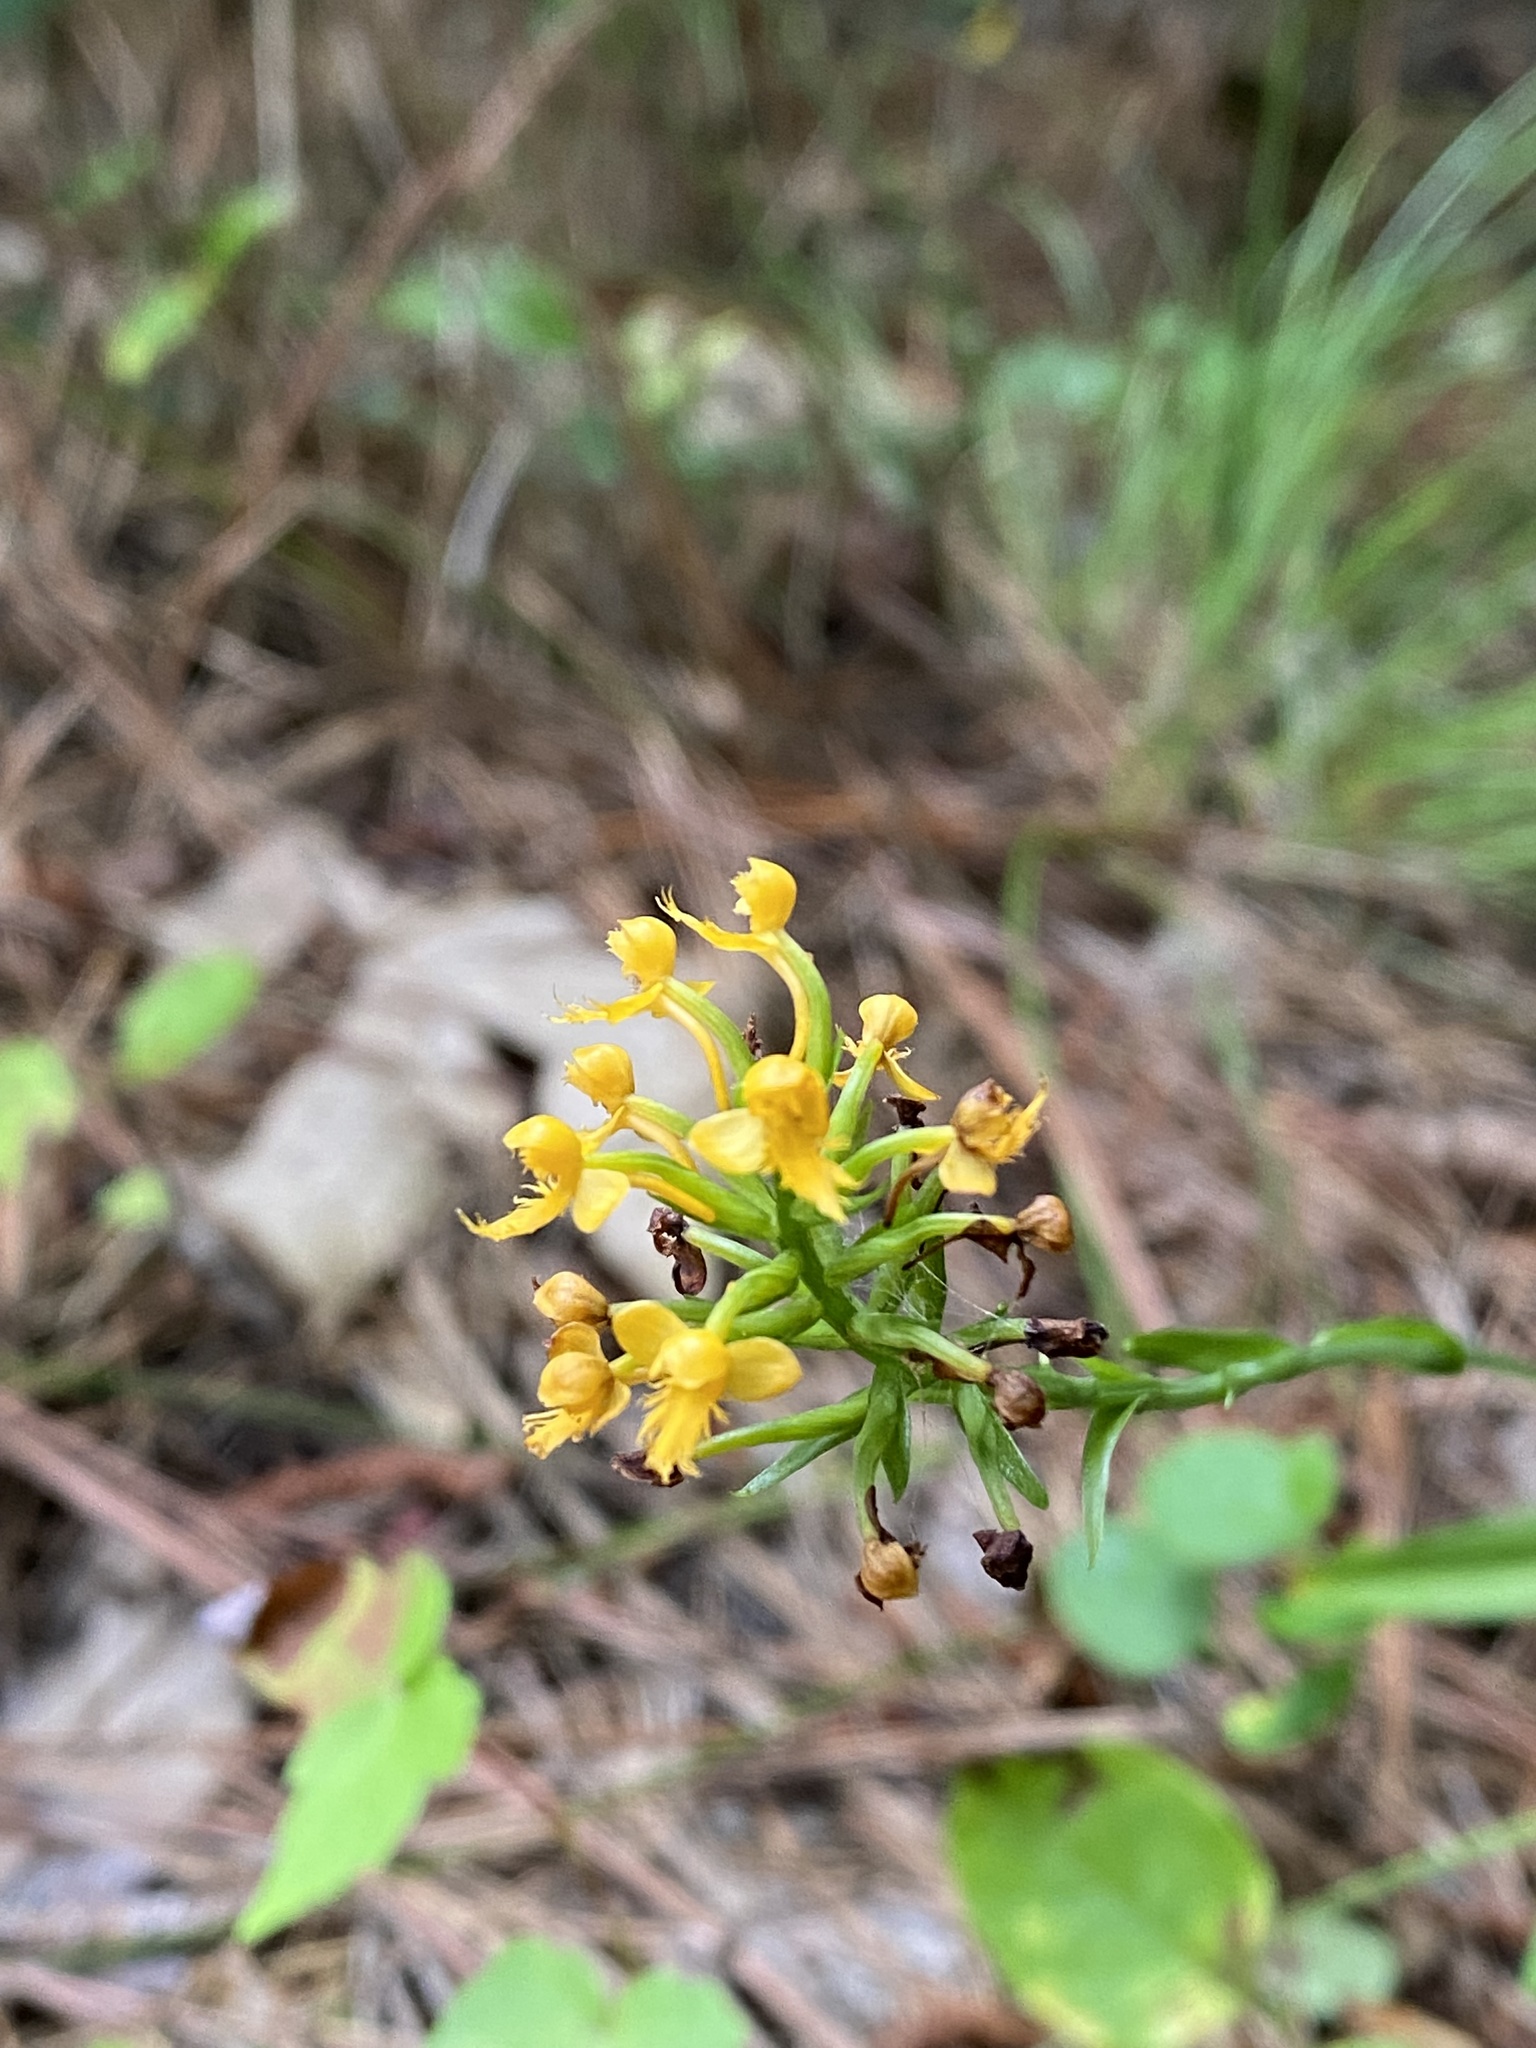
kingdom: Plantae
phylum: Tracheophyta
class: Liliopsida
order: Asparagales
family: Orchidaceae
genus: Platanthera
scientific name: Platanthera cristata
